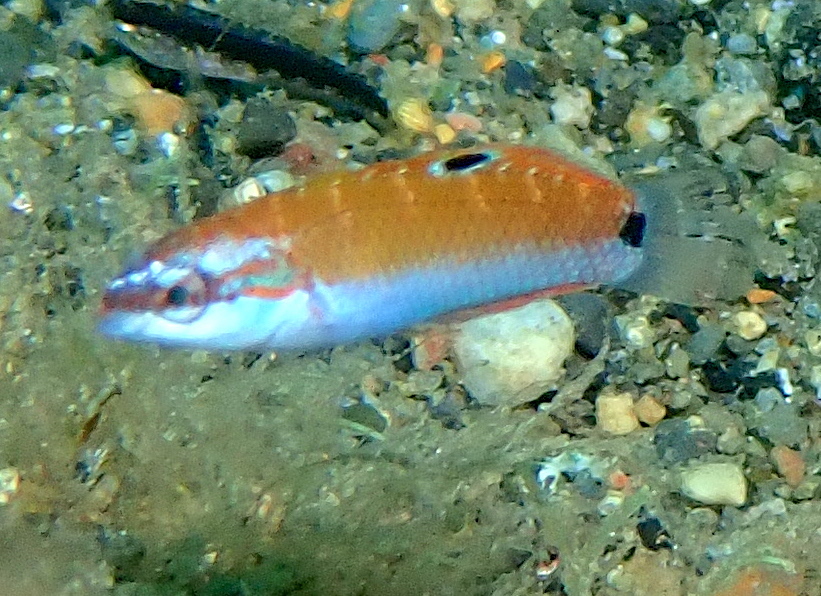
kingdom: Animalia
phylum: Chordata
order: Perciformes
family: Labridae
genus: Thalassoma
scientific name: Thalassoma lunare
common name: Blue wrasse
